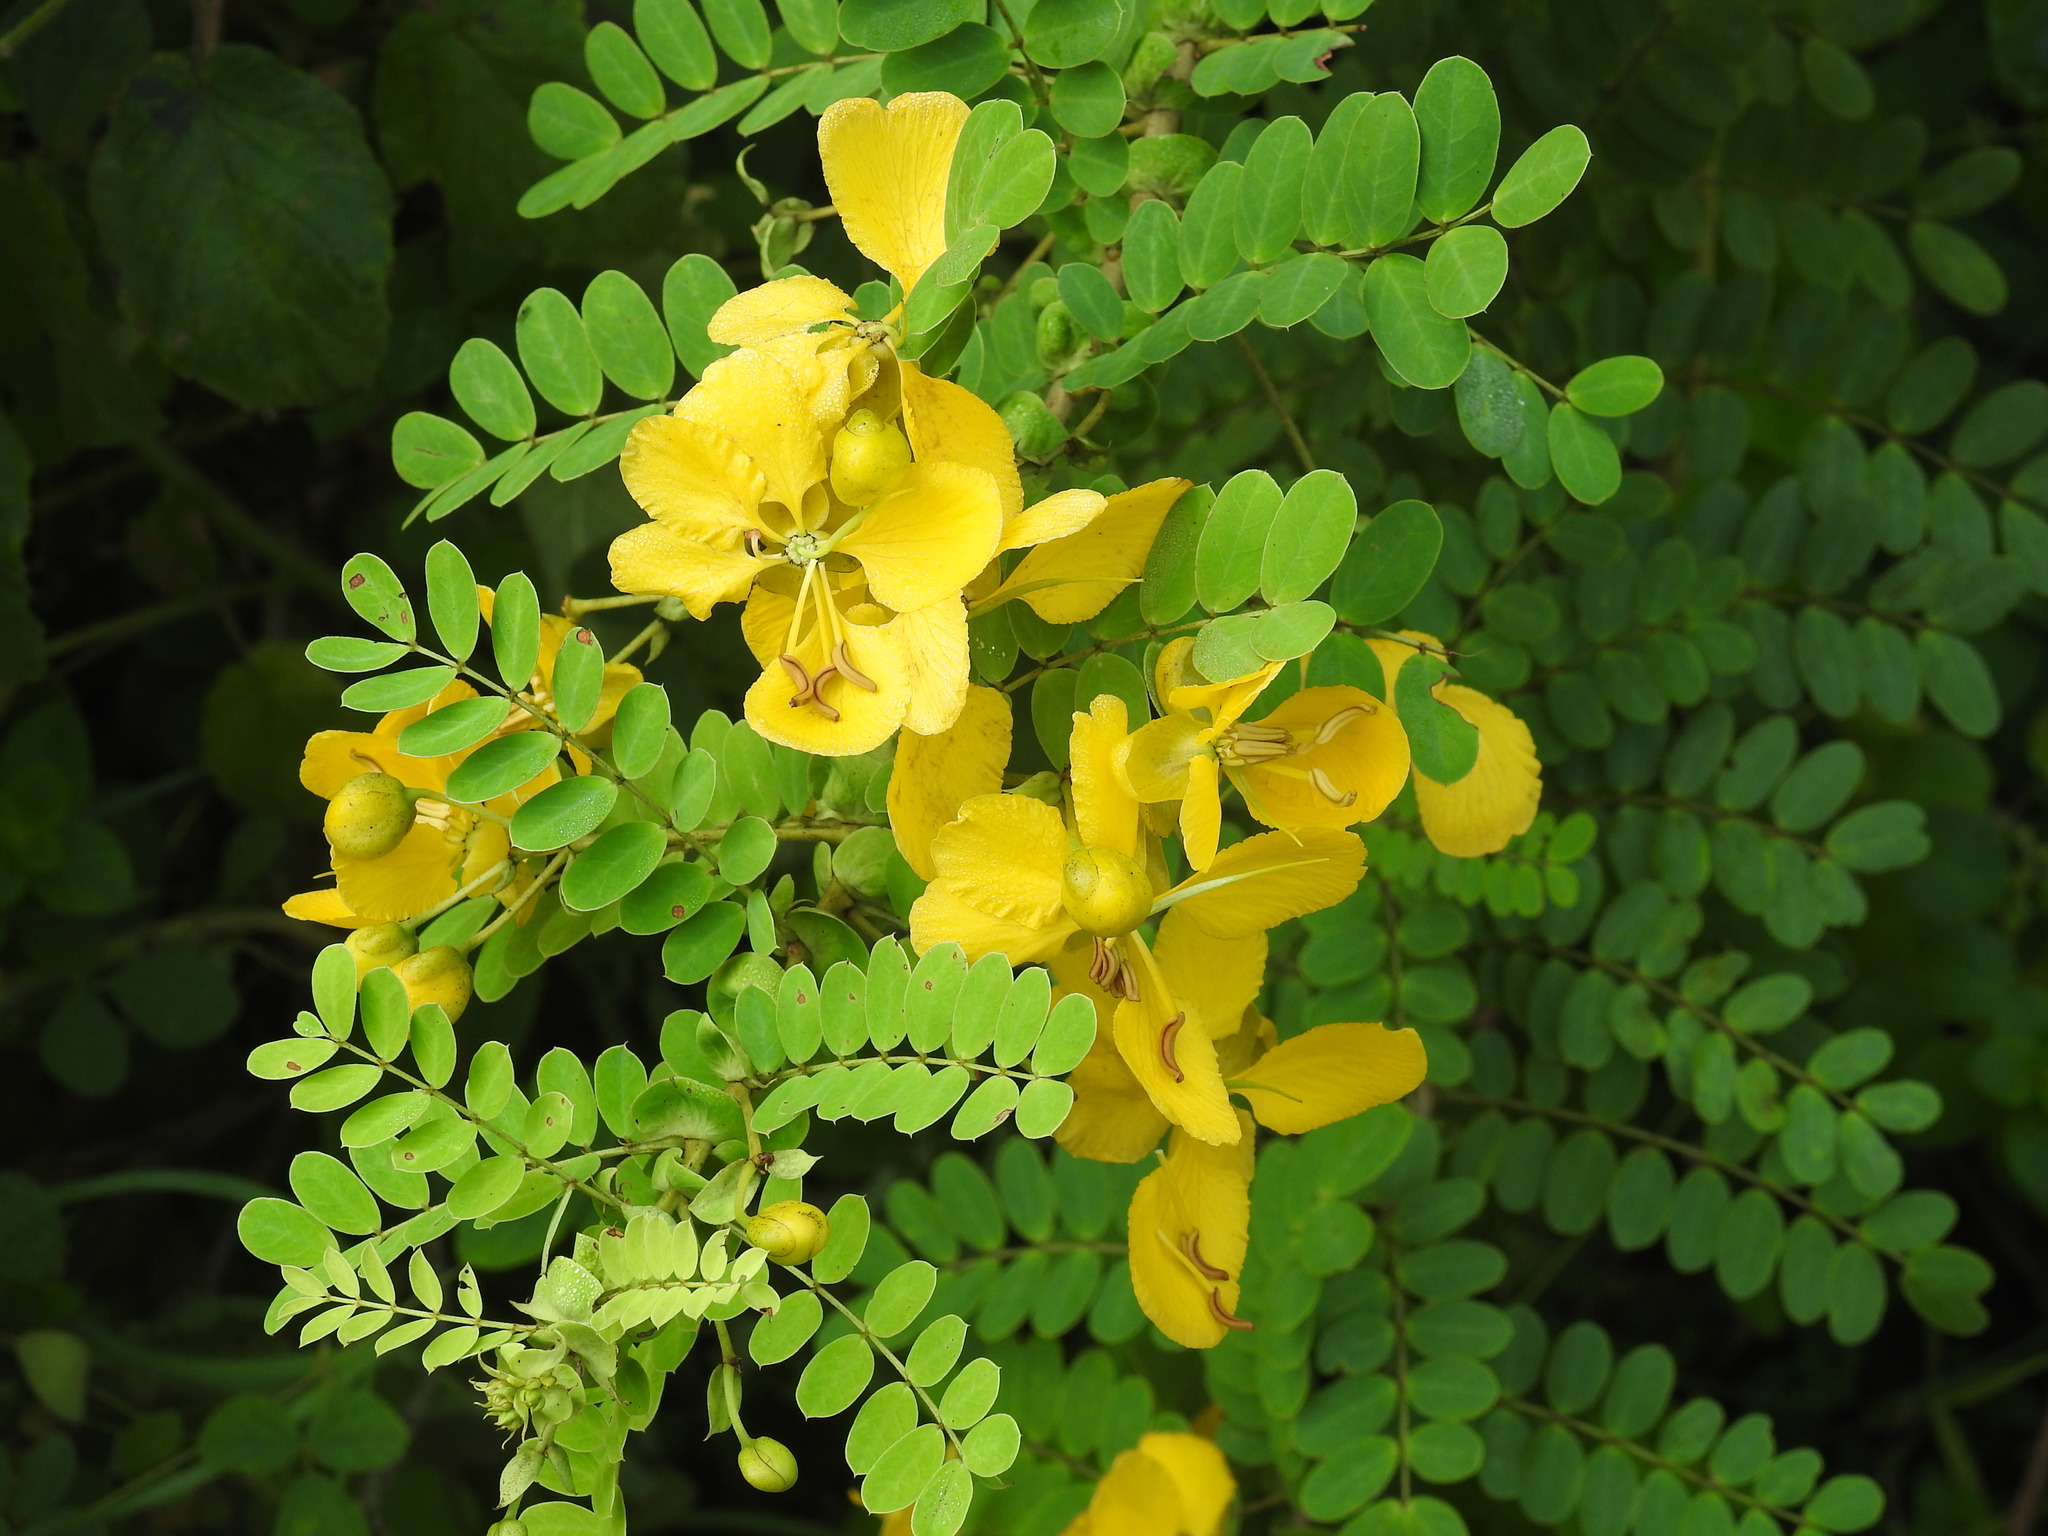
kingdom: Plantae
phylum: Tracheophyta
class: Magnoliopsida
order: Fabales
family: Fabaceae
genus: Senna
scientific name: Senna auriculata
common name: Tanner's cassia
